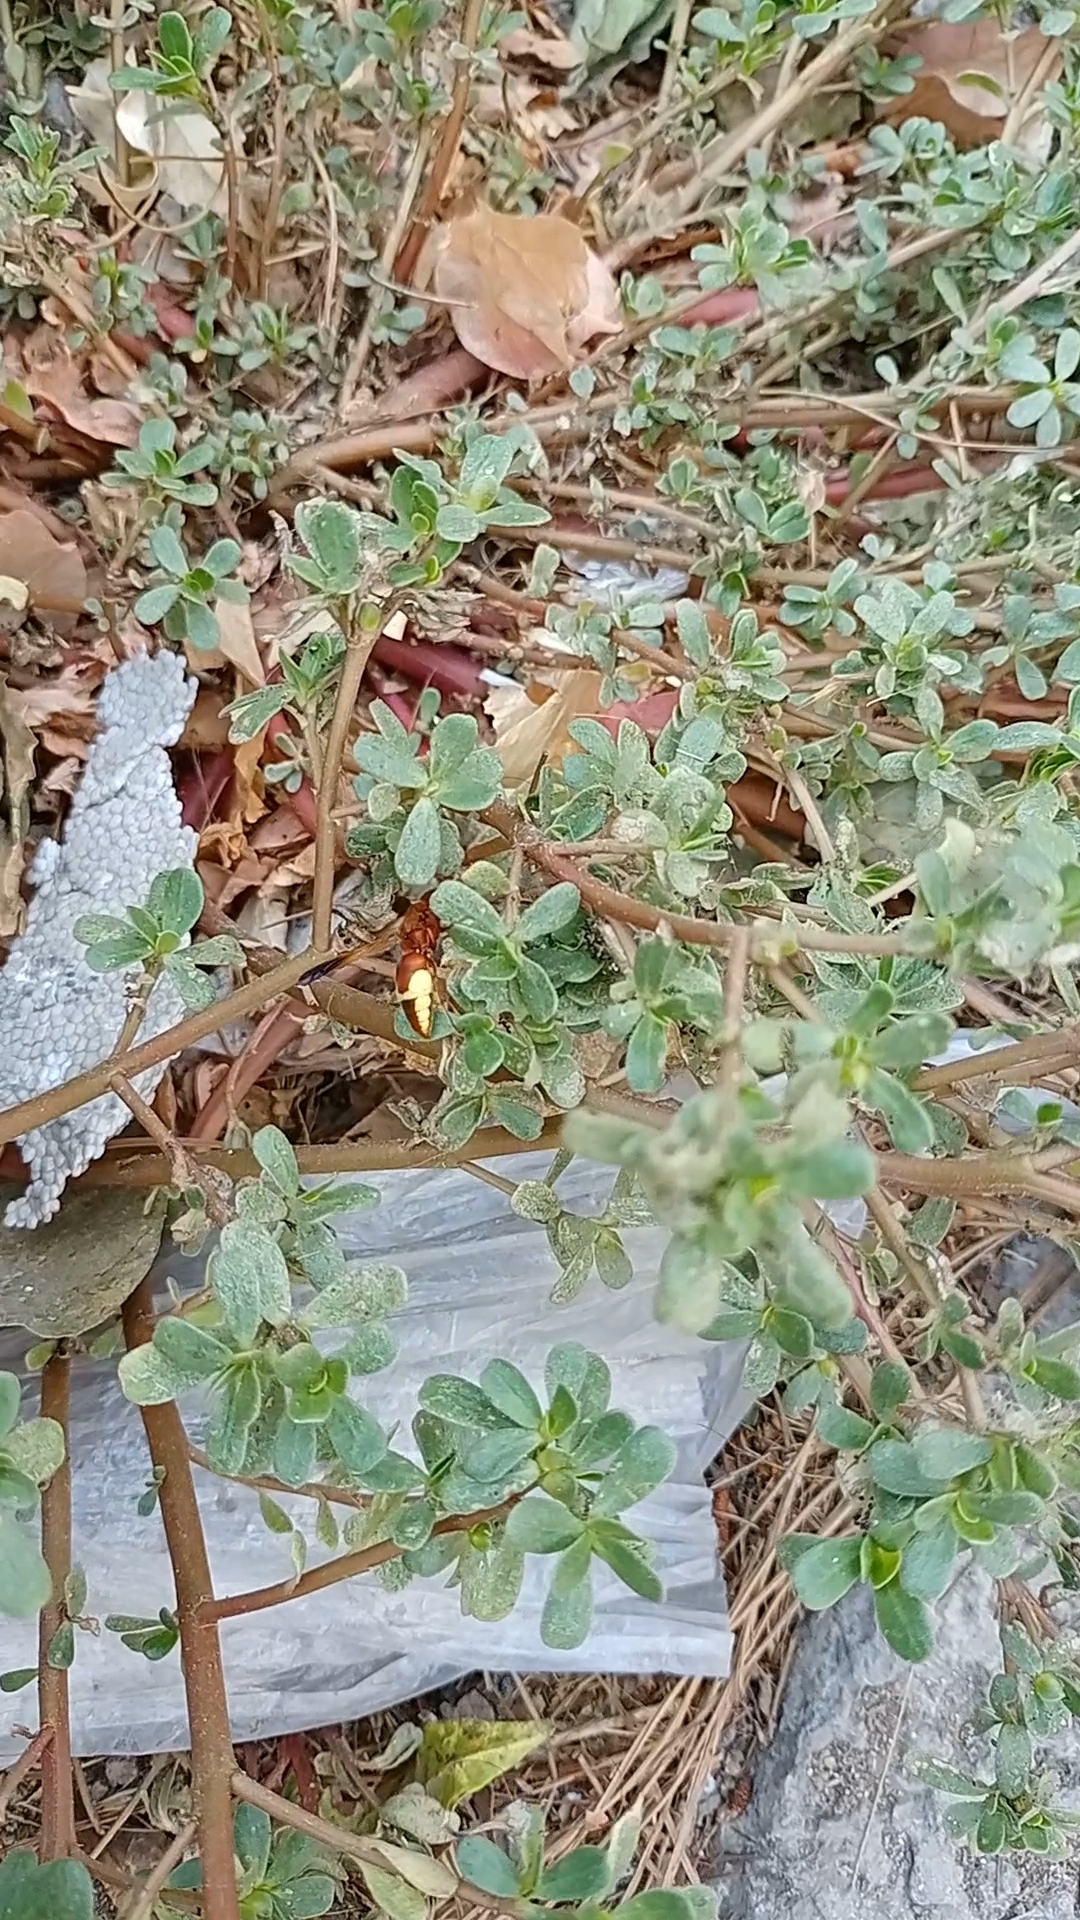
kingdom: Animalia
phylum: Arthropoda
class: Insecta
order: Hymenoptera
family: Eumenidae
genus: Rhynchium
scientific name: Rhynchium oculatum
